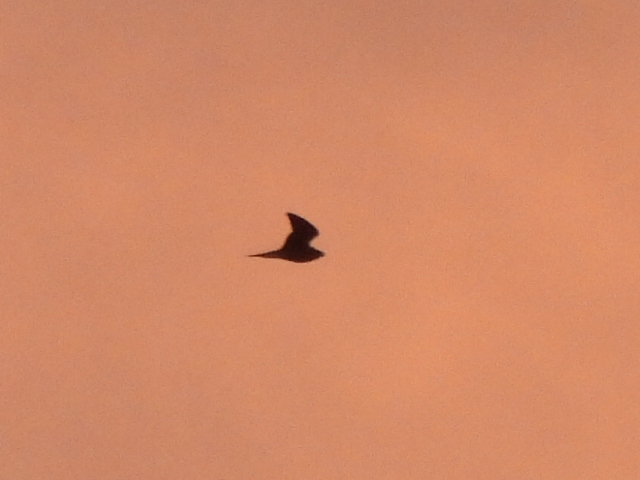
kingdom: Animalia
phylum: Chordata
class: Aves
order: Caprimulgiformes
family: Caprimulgidae
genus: Chordeiles
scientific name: Chordeiles minor
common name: Common nighthawk
